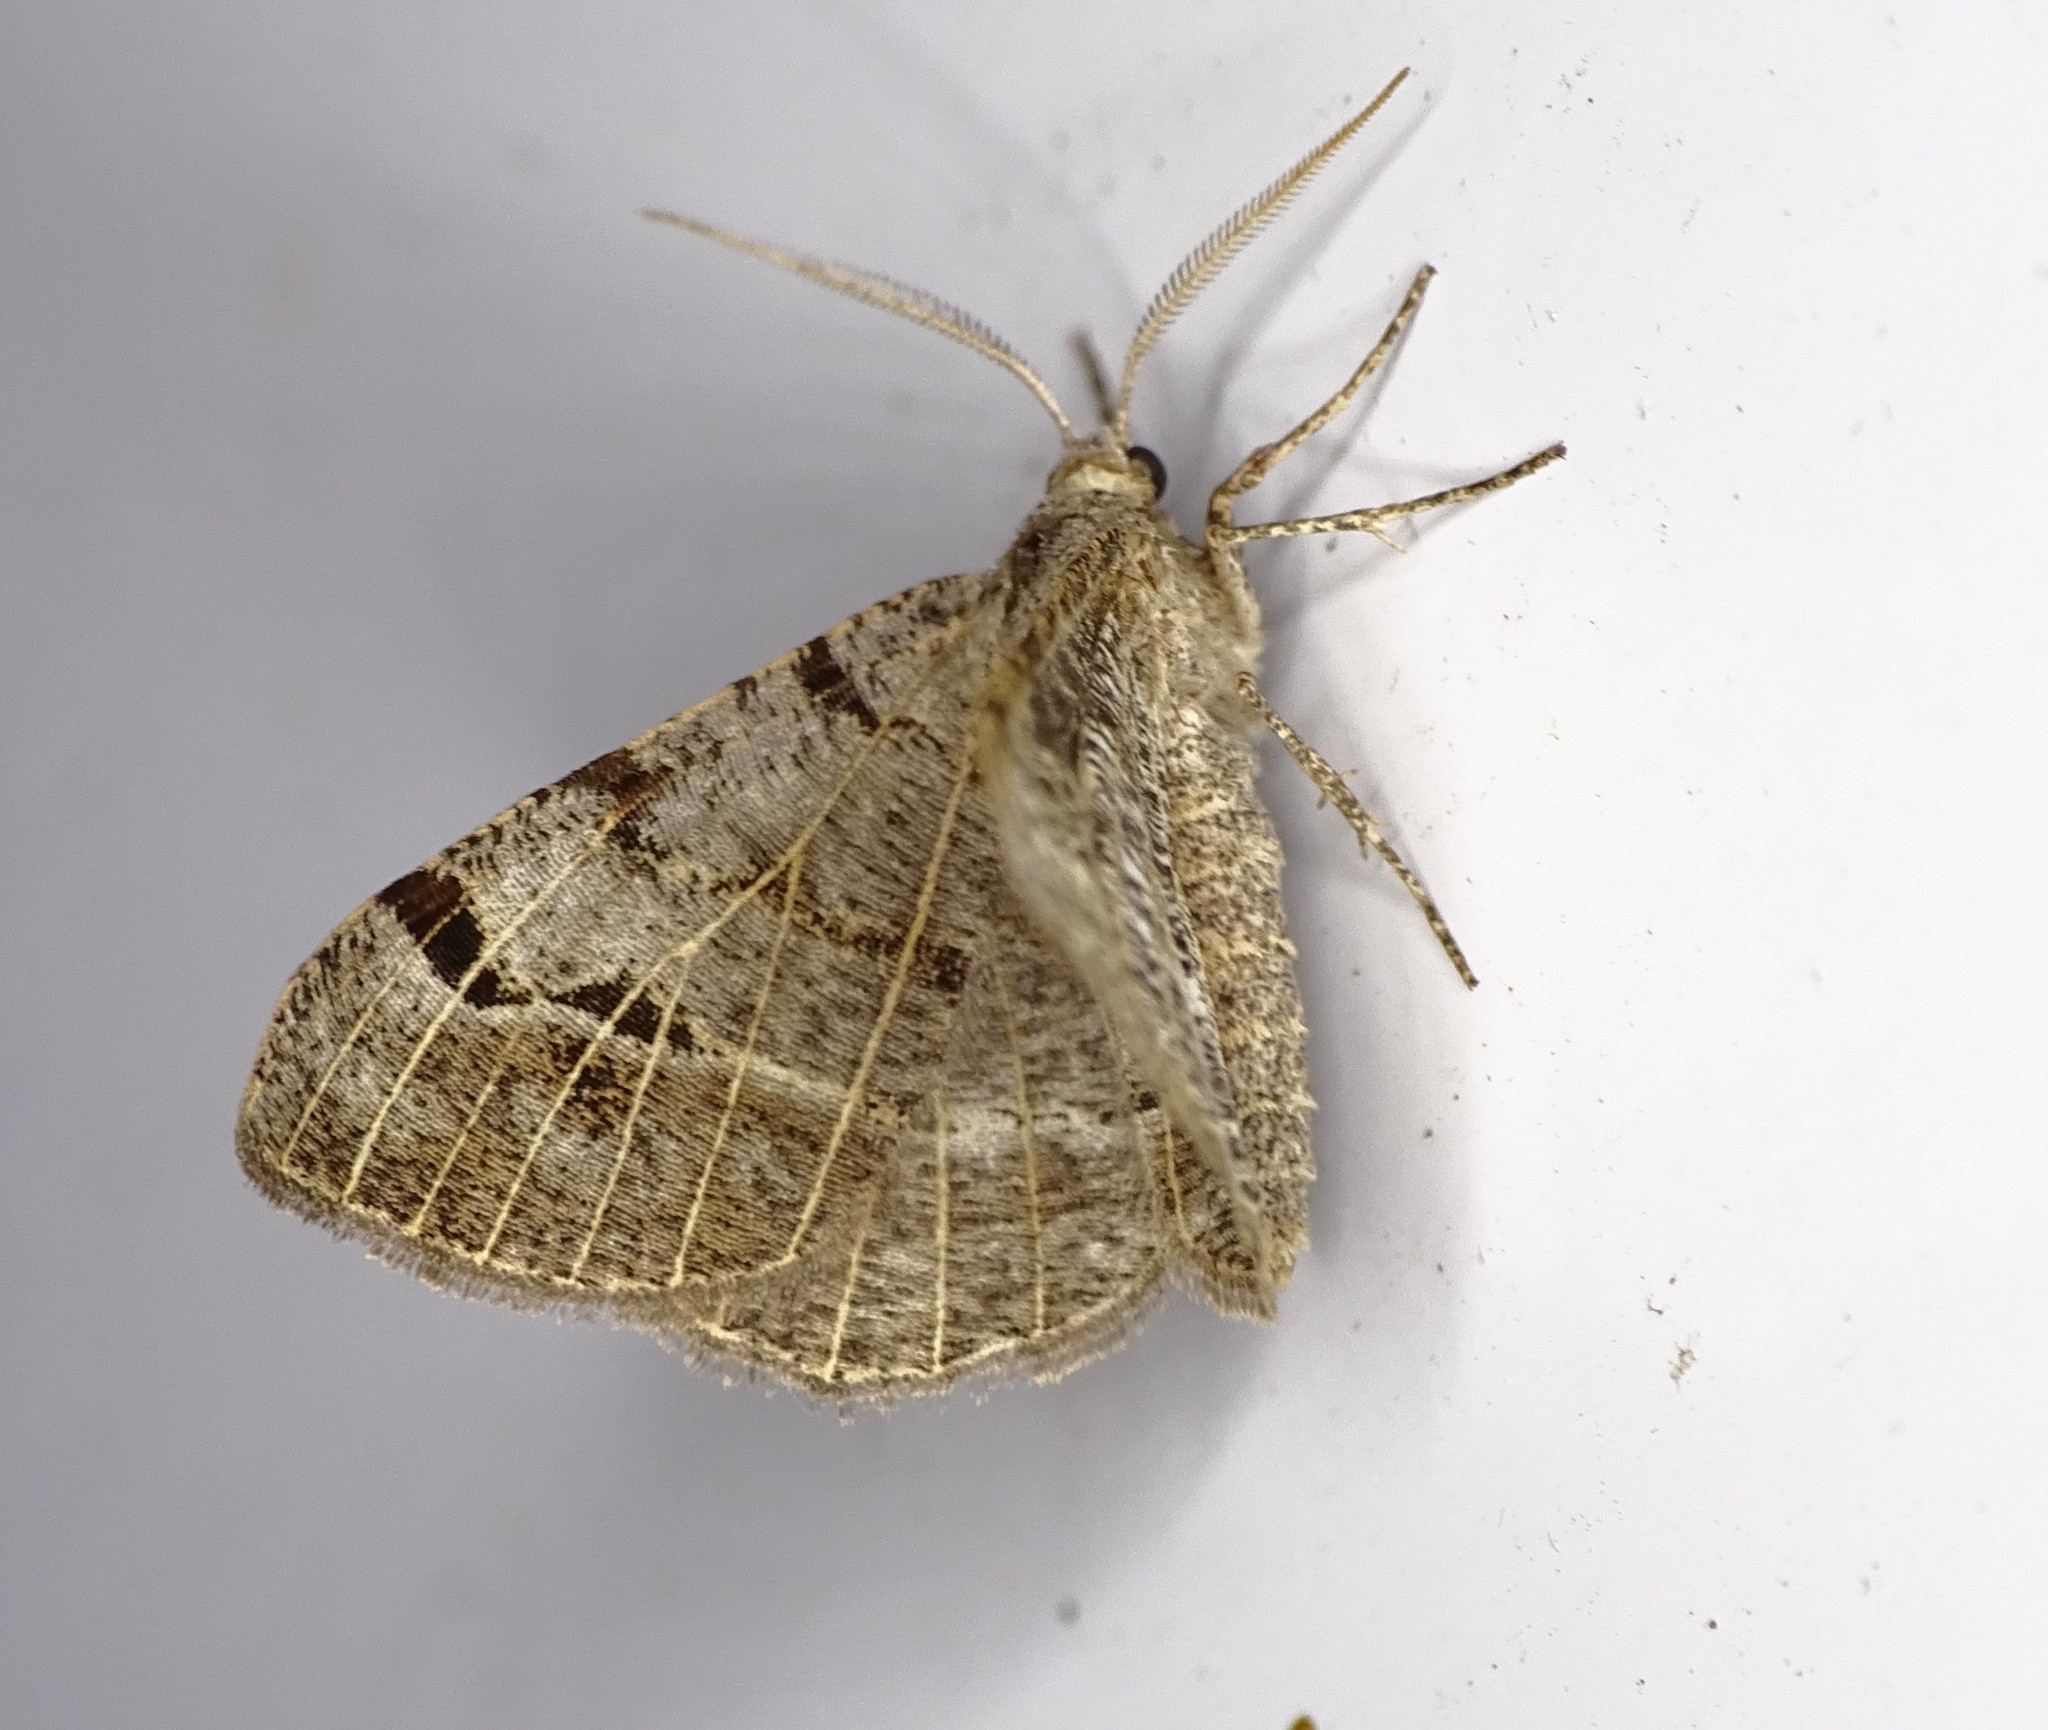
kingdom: Animalia
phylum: Arthropoda
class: Insecta
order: Lepidoptera
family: Geometridae
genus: Isturgia
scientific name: Isturgia dislocaria
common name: Pale-viened enconista
